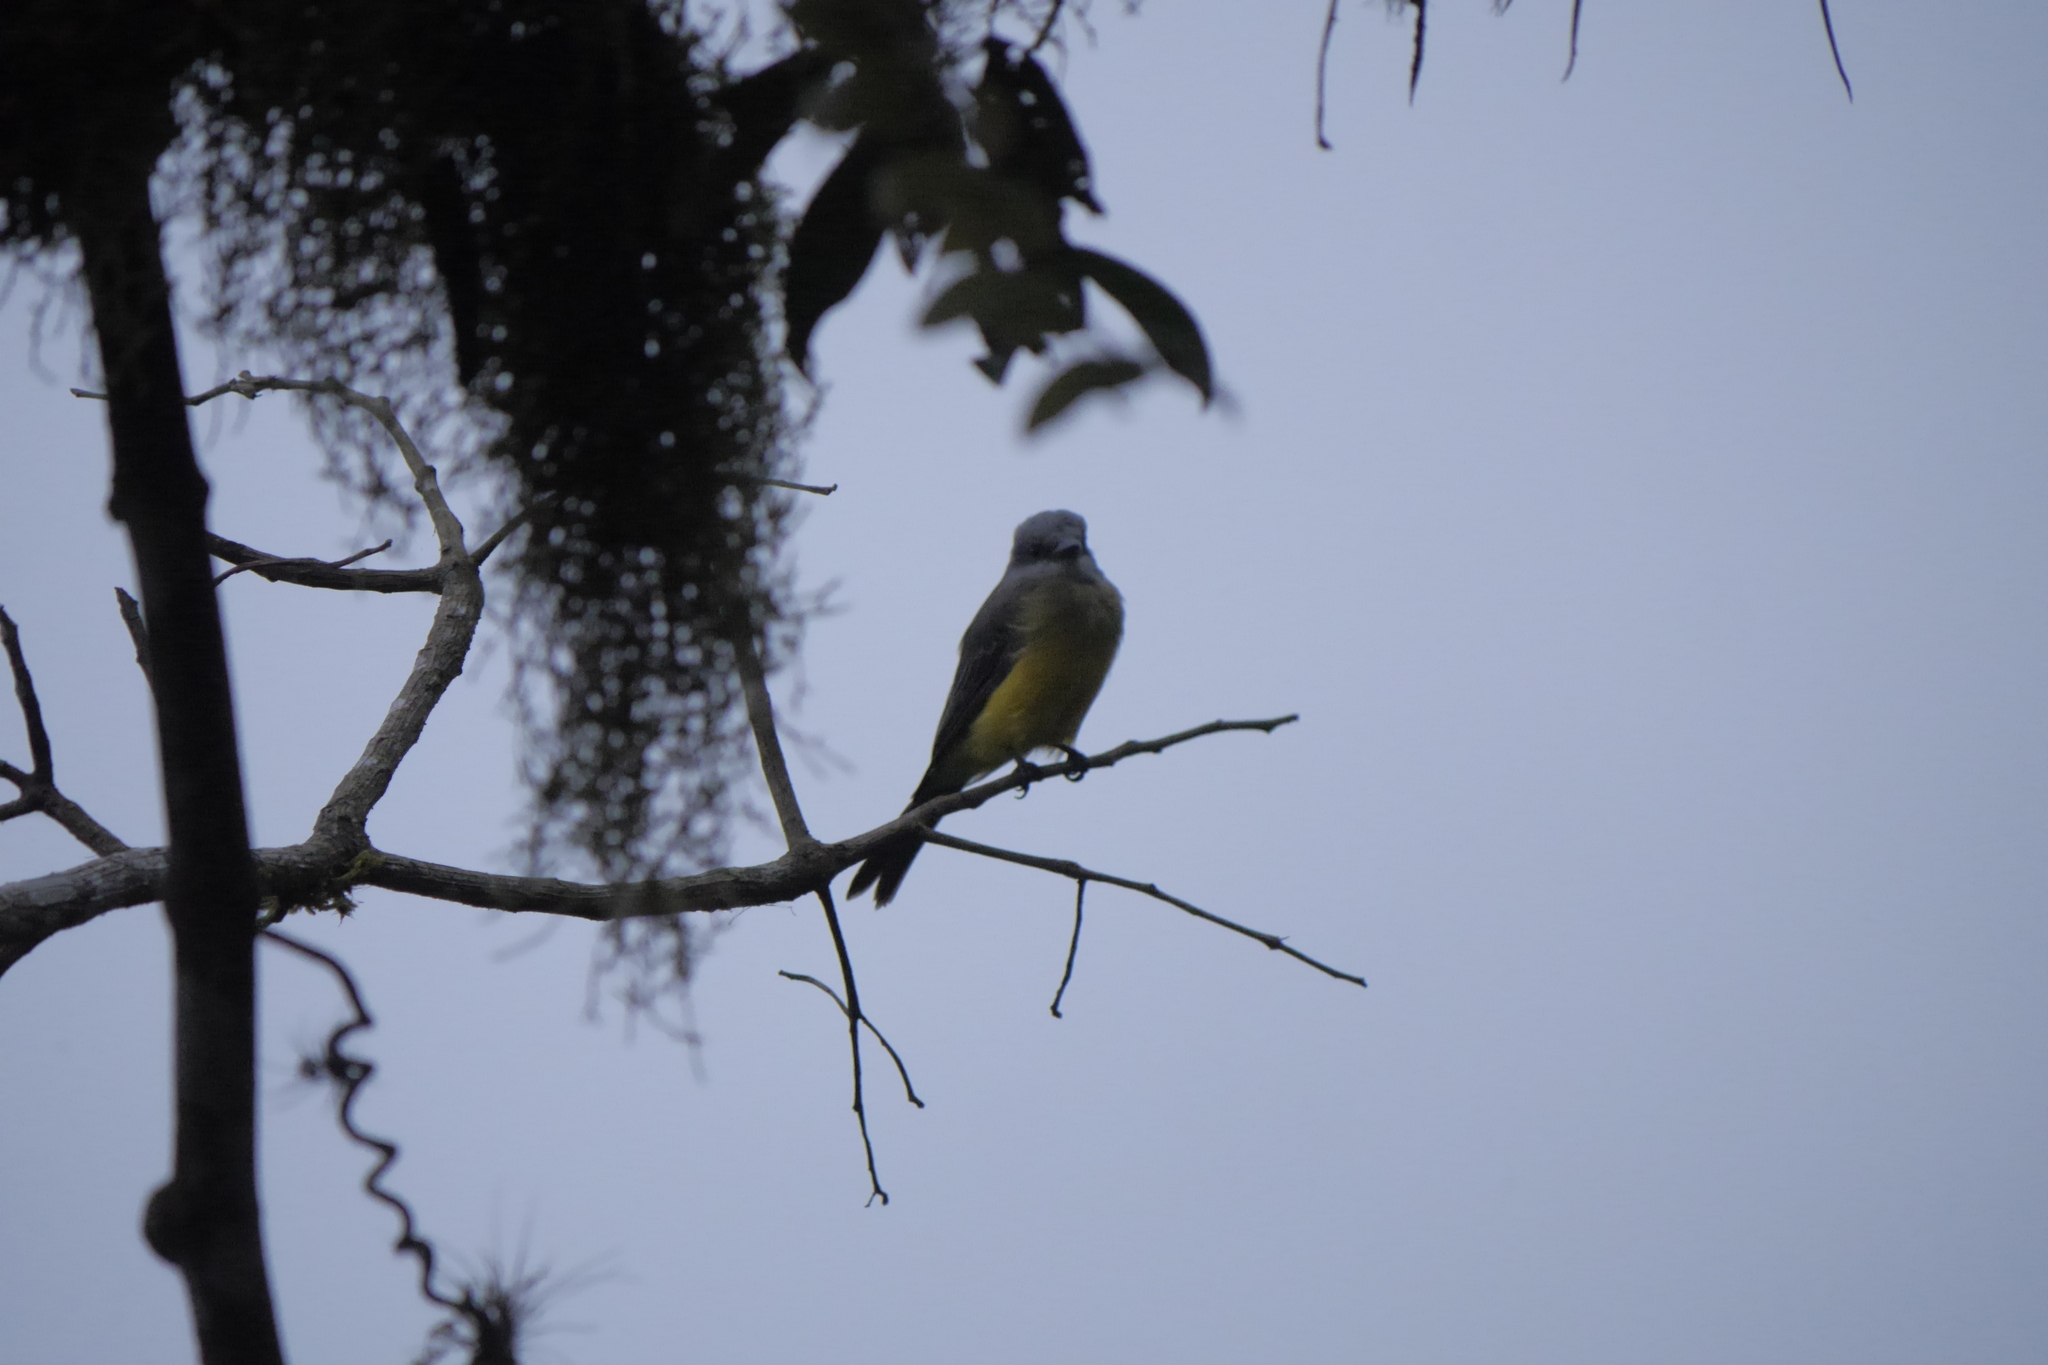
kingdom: Animalia
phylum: Chordata
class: Aves
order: Passeriformes
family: Tyrannidae
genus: Tyrannus
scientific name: Tyrannus melancholicus
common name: Tropical kingbird
